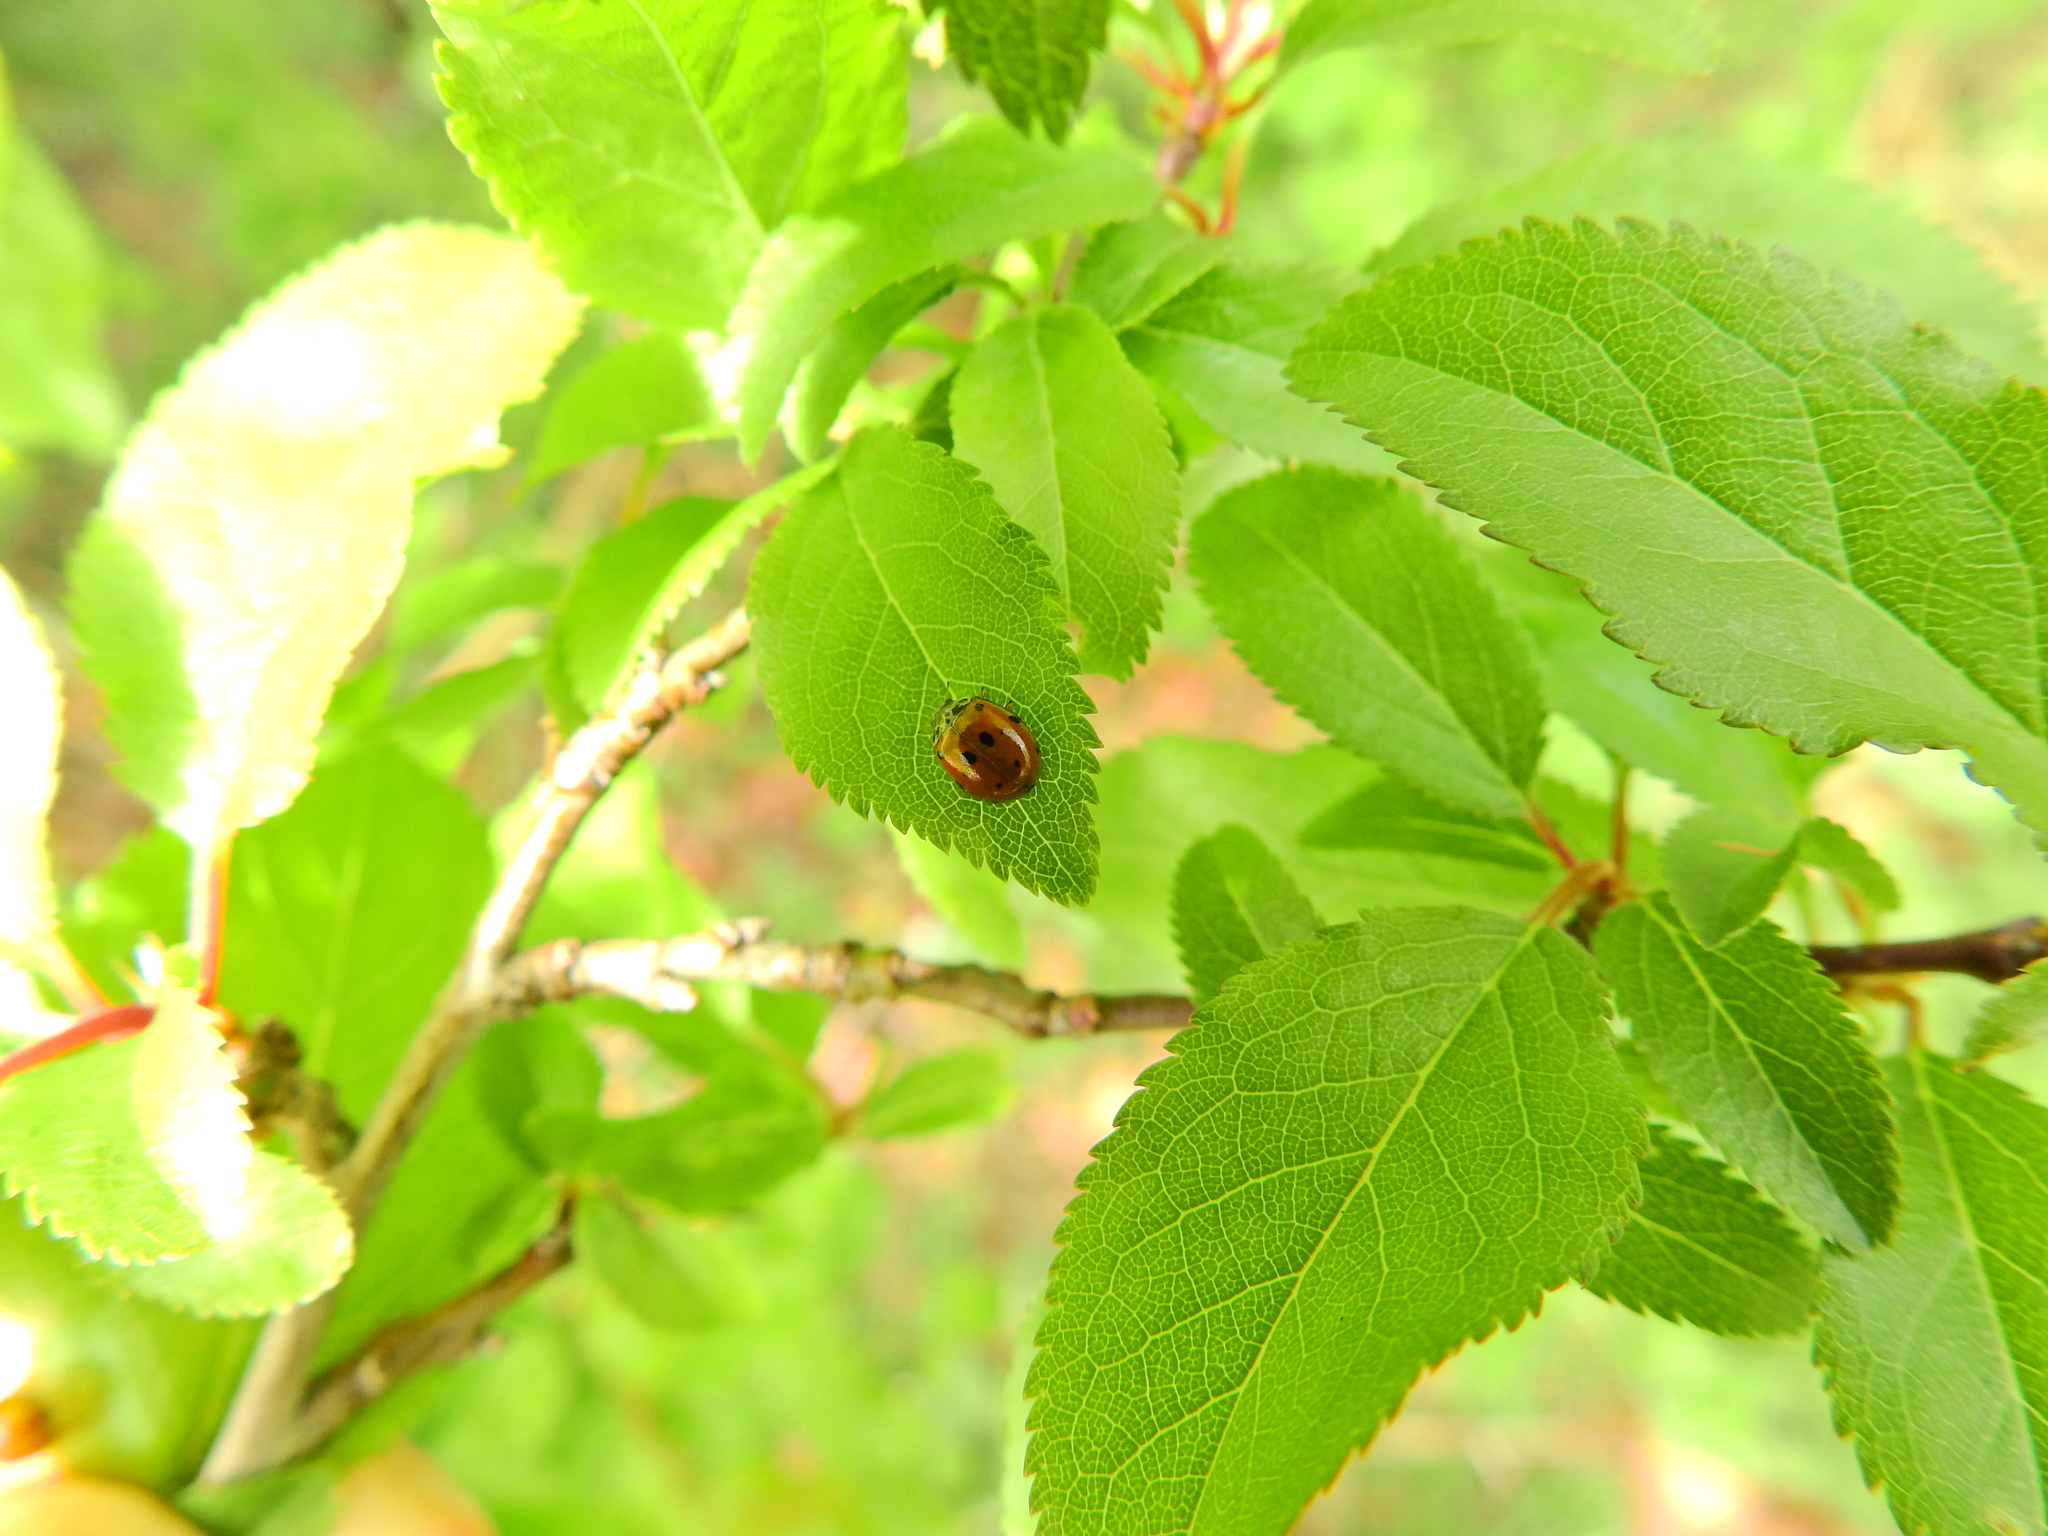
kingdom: Animalia
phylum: Arthropoda
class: Insecta
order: Coleoptera
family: Coccinellidae
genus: Adalia
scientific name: Adalia decempunctata
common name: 10-spot ladybird
